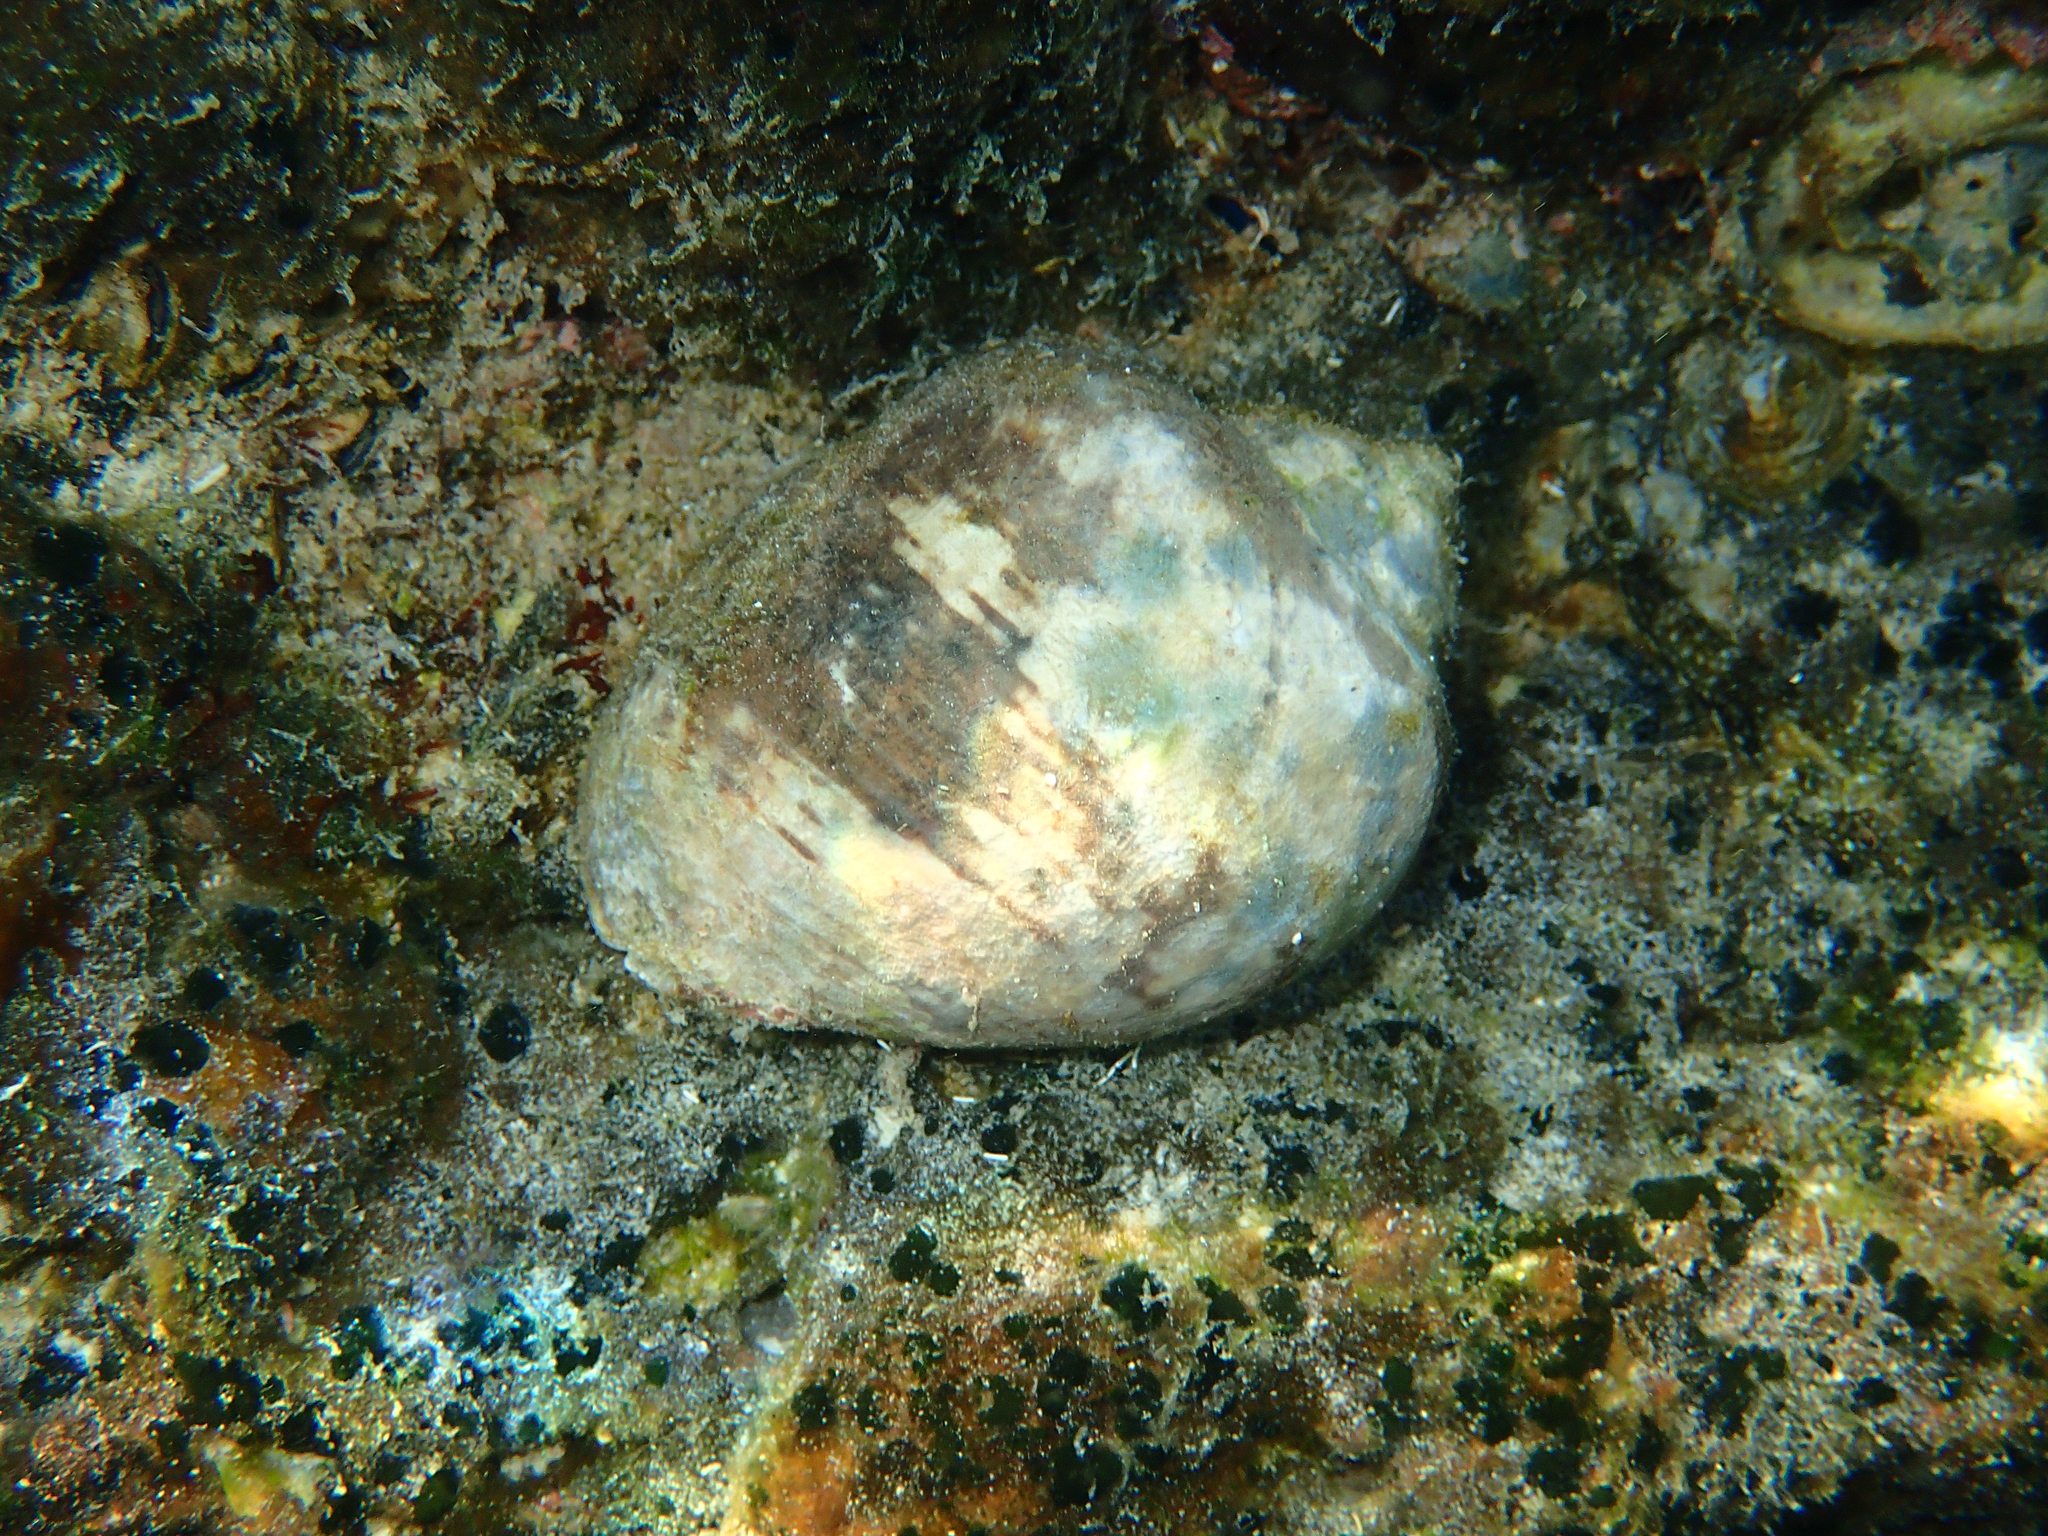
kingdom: Animalia
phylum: Mollusca
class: Gastropoda
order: Neogastropoda
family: Muricidae
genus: Vasula
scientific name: Vasula melones
